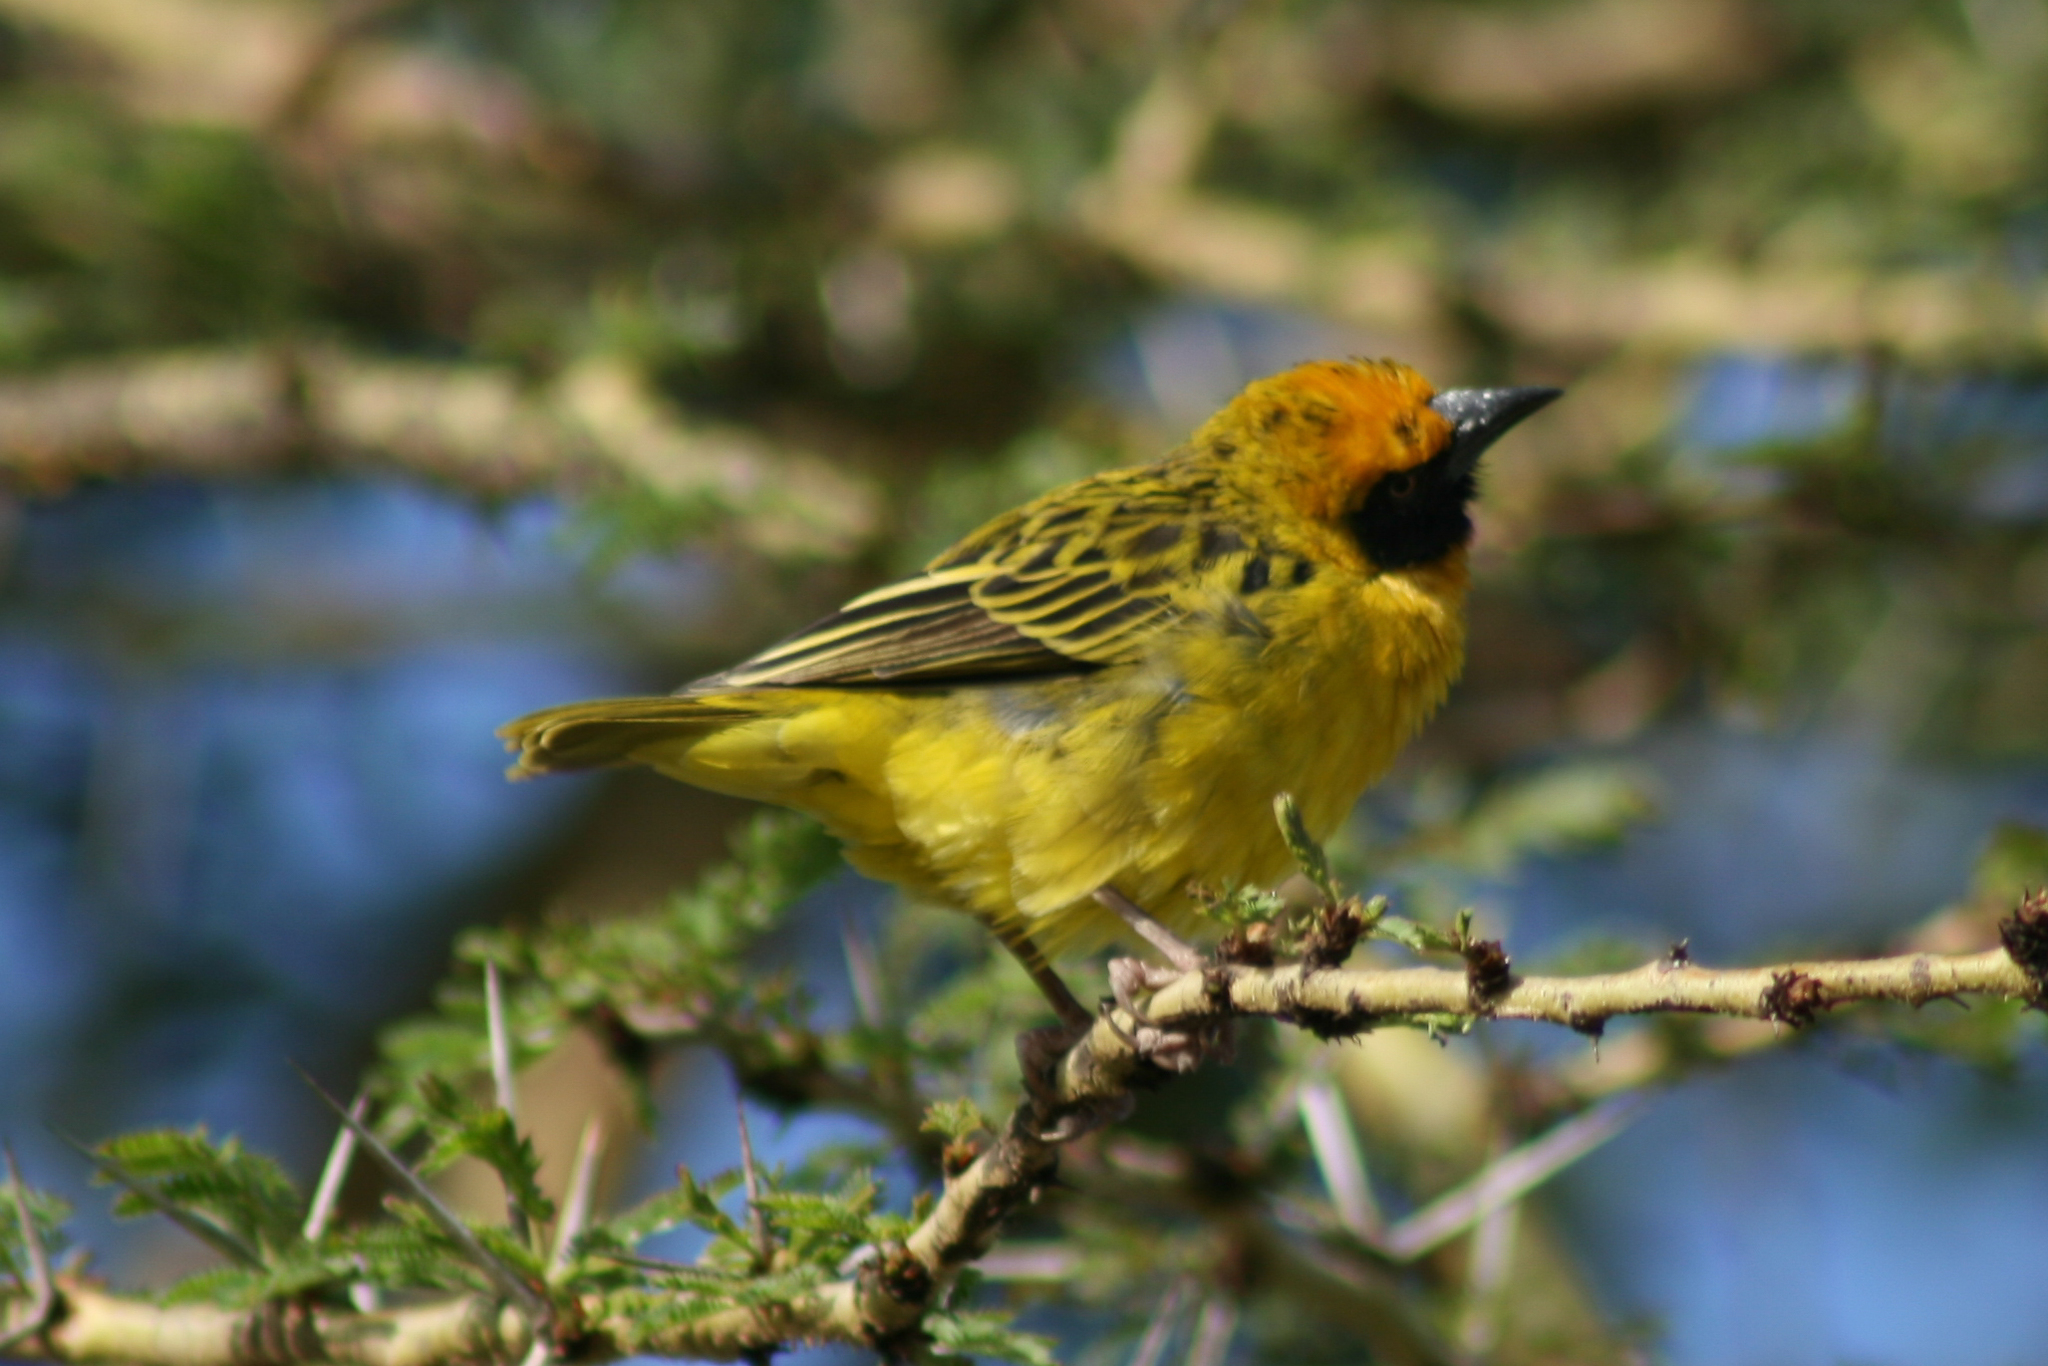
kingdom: Animalia
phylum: Chordata
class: Aves
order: Passeriformes
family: Ploceidae
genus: Ploceus
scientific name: Ploceus spekei
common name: Speke's weaver
